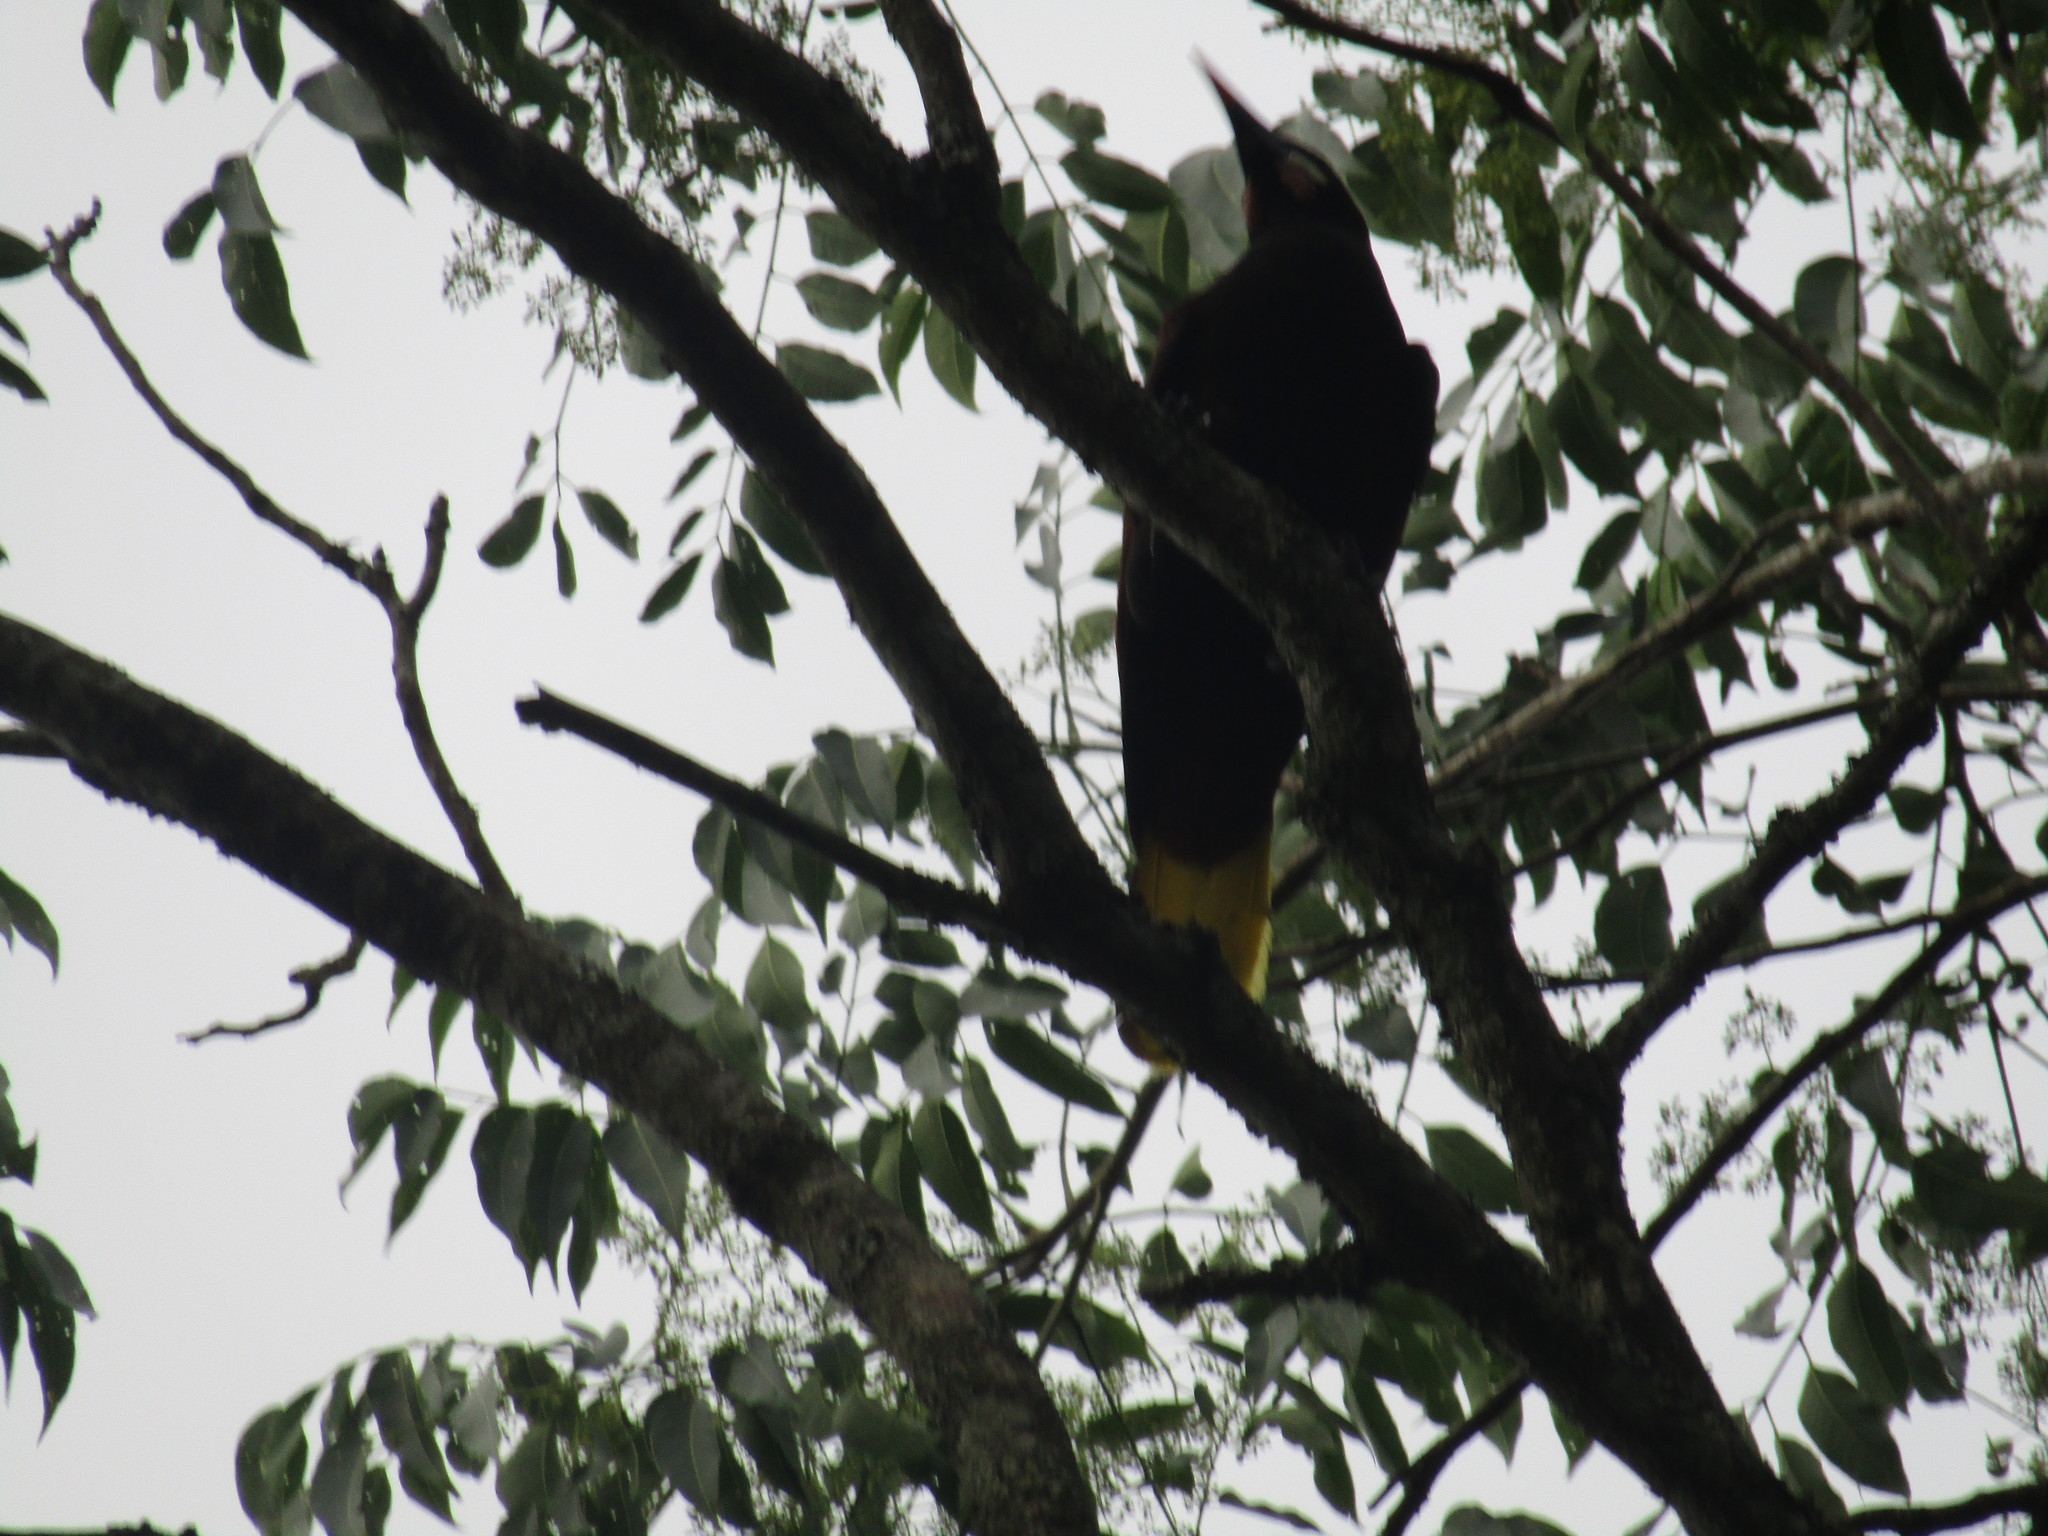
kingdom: Animalia
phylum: Chordata
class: Aves
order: Passeriformes
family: Icteridae
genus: Psarocolius
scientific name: Psarocolius montezuma
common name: Montezuma oropendola
